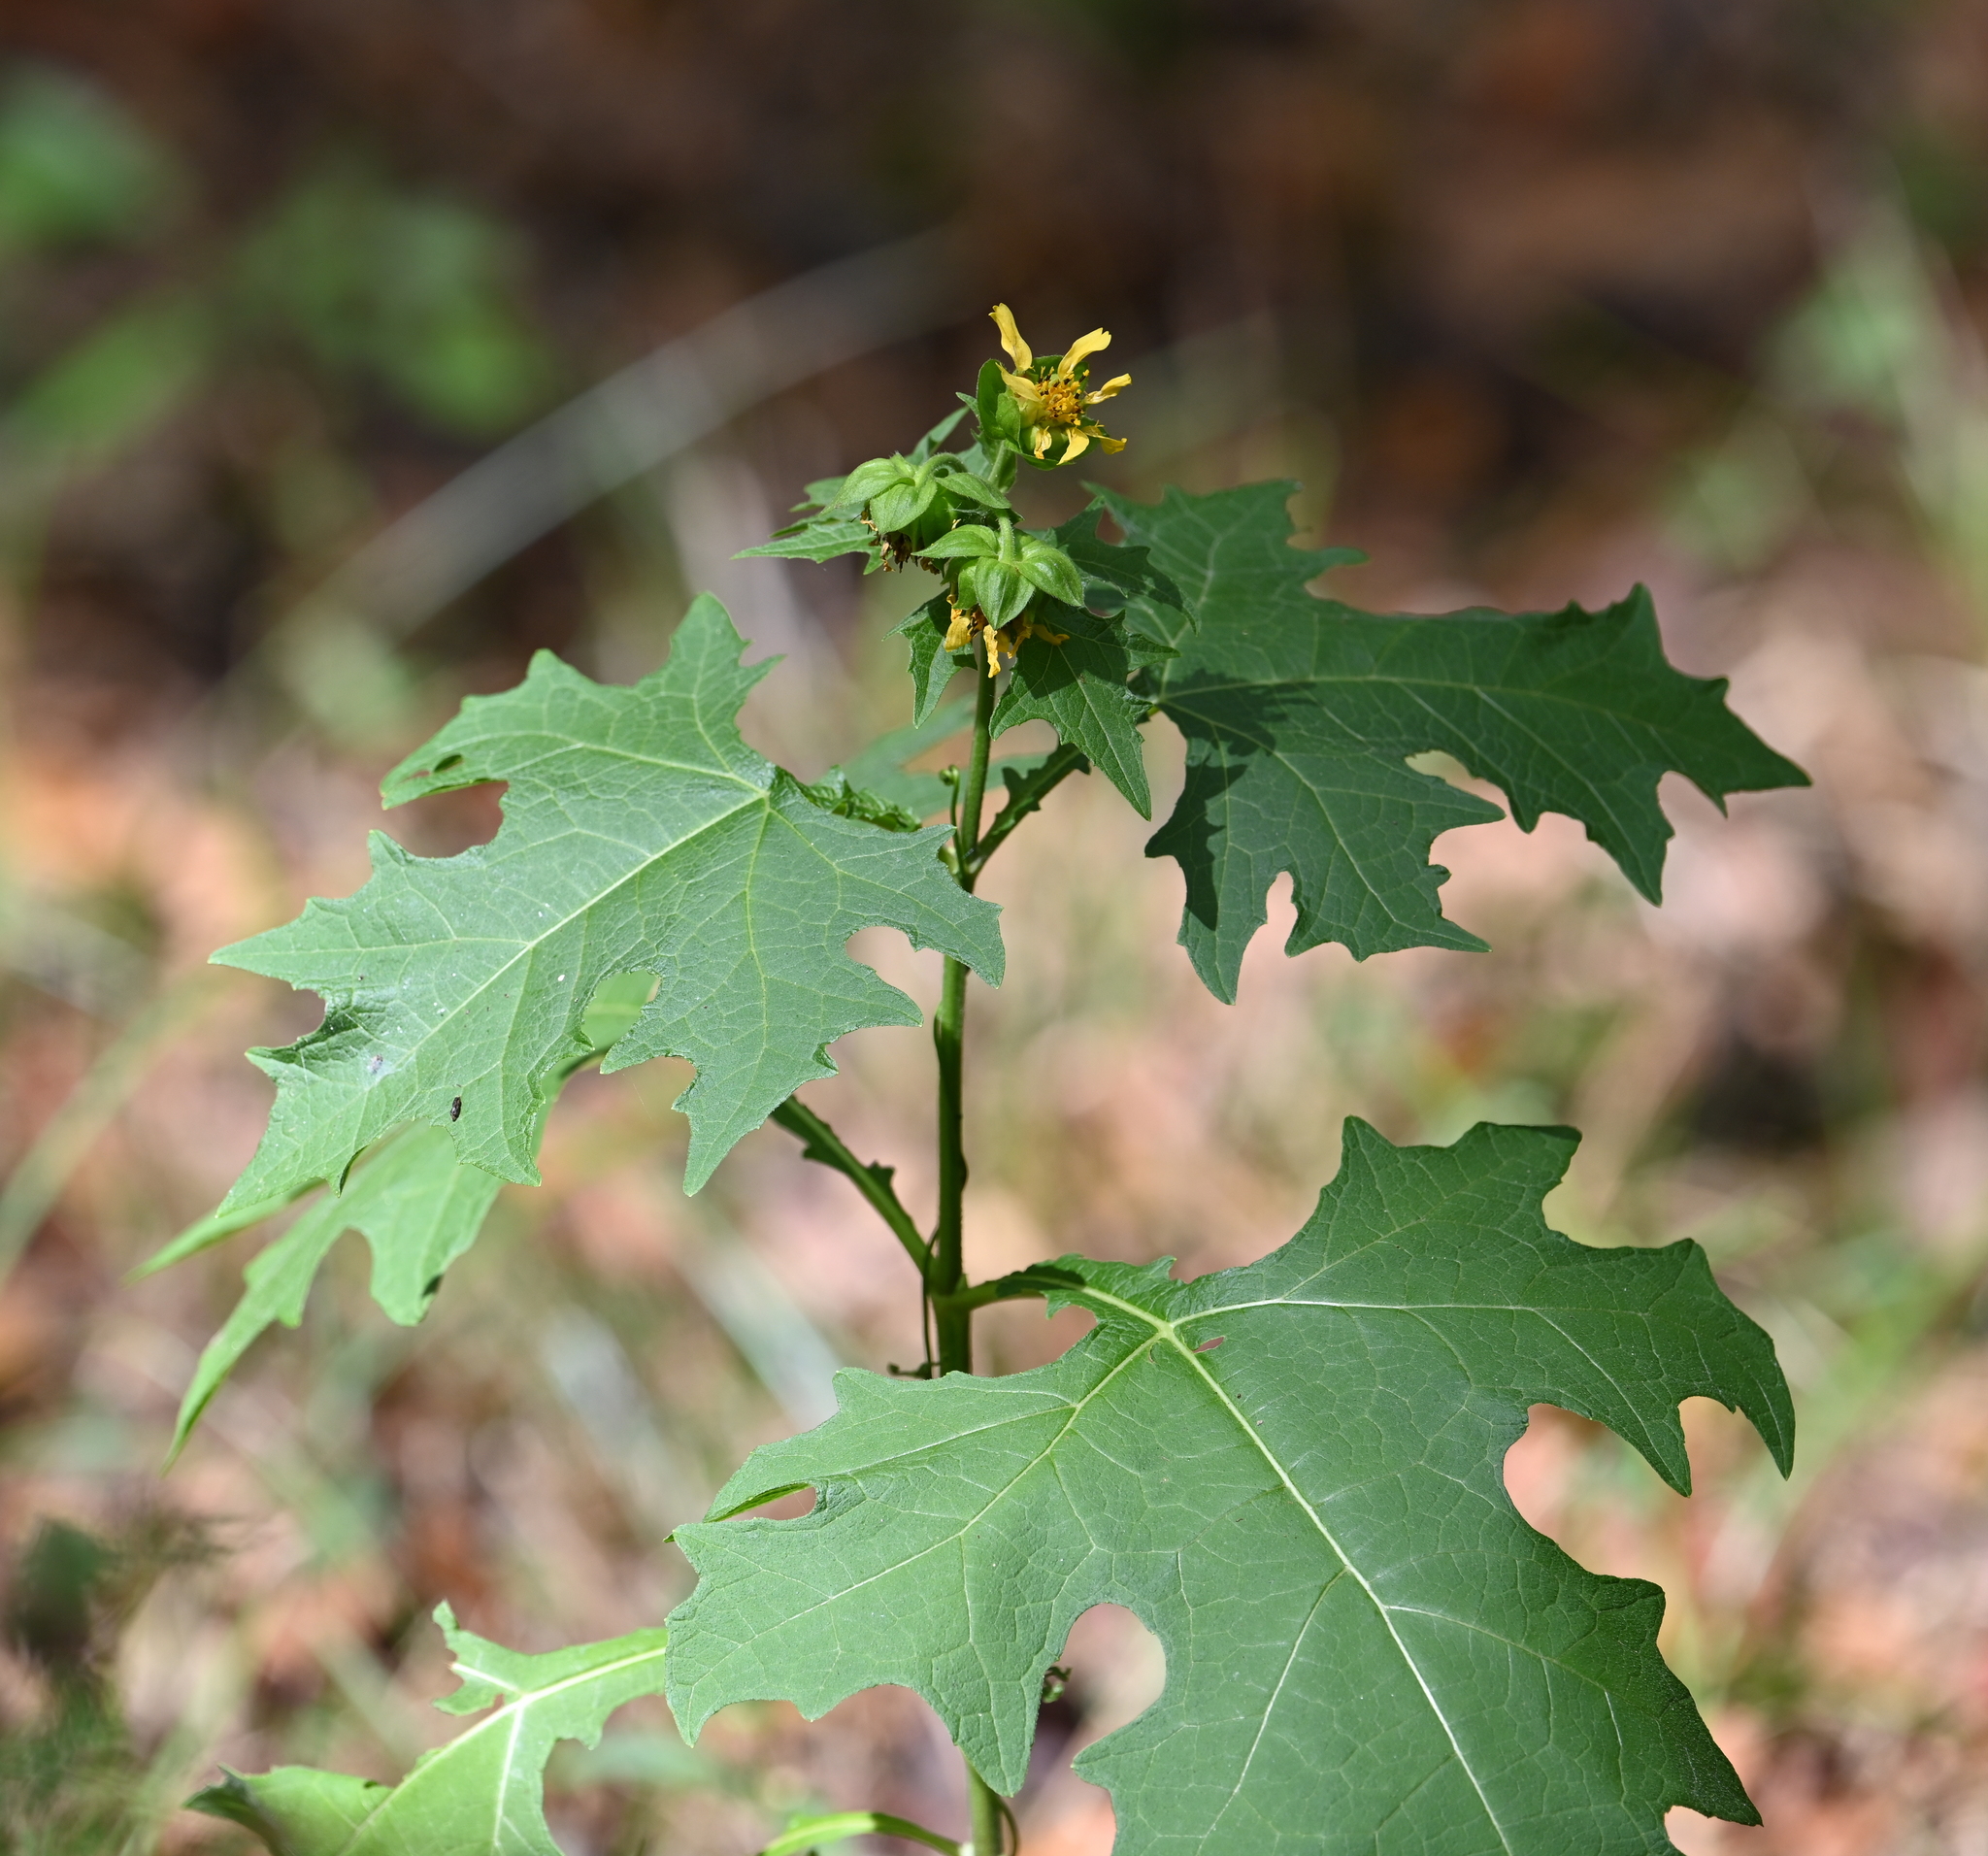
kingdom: Plantae
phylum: Tracheophyta
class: Magnoliopsida
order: Asterales
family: Asteraceae
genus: Smallanthus
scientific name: Smallanthus uvedalia
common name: Bear's-foot
